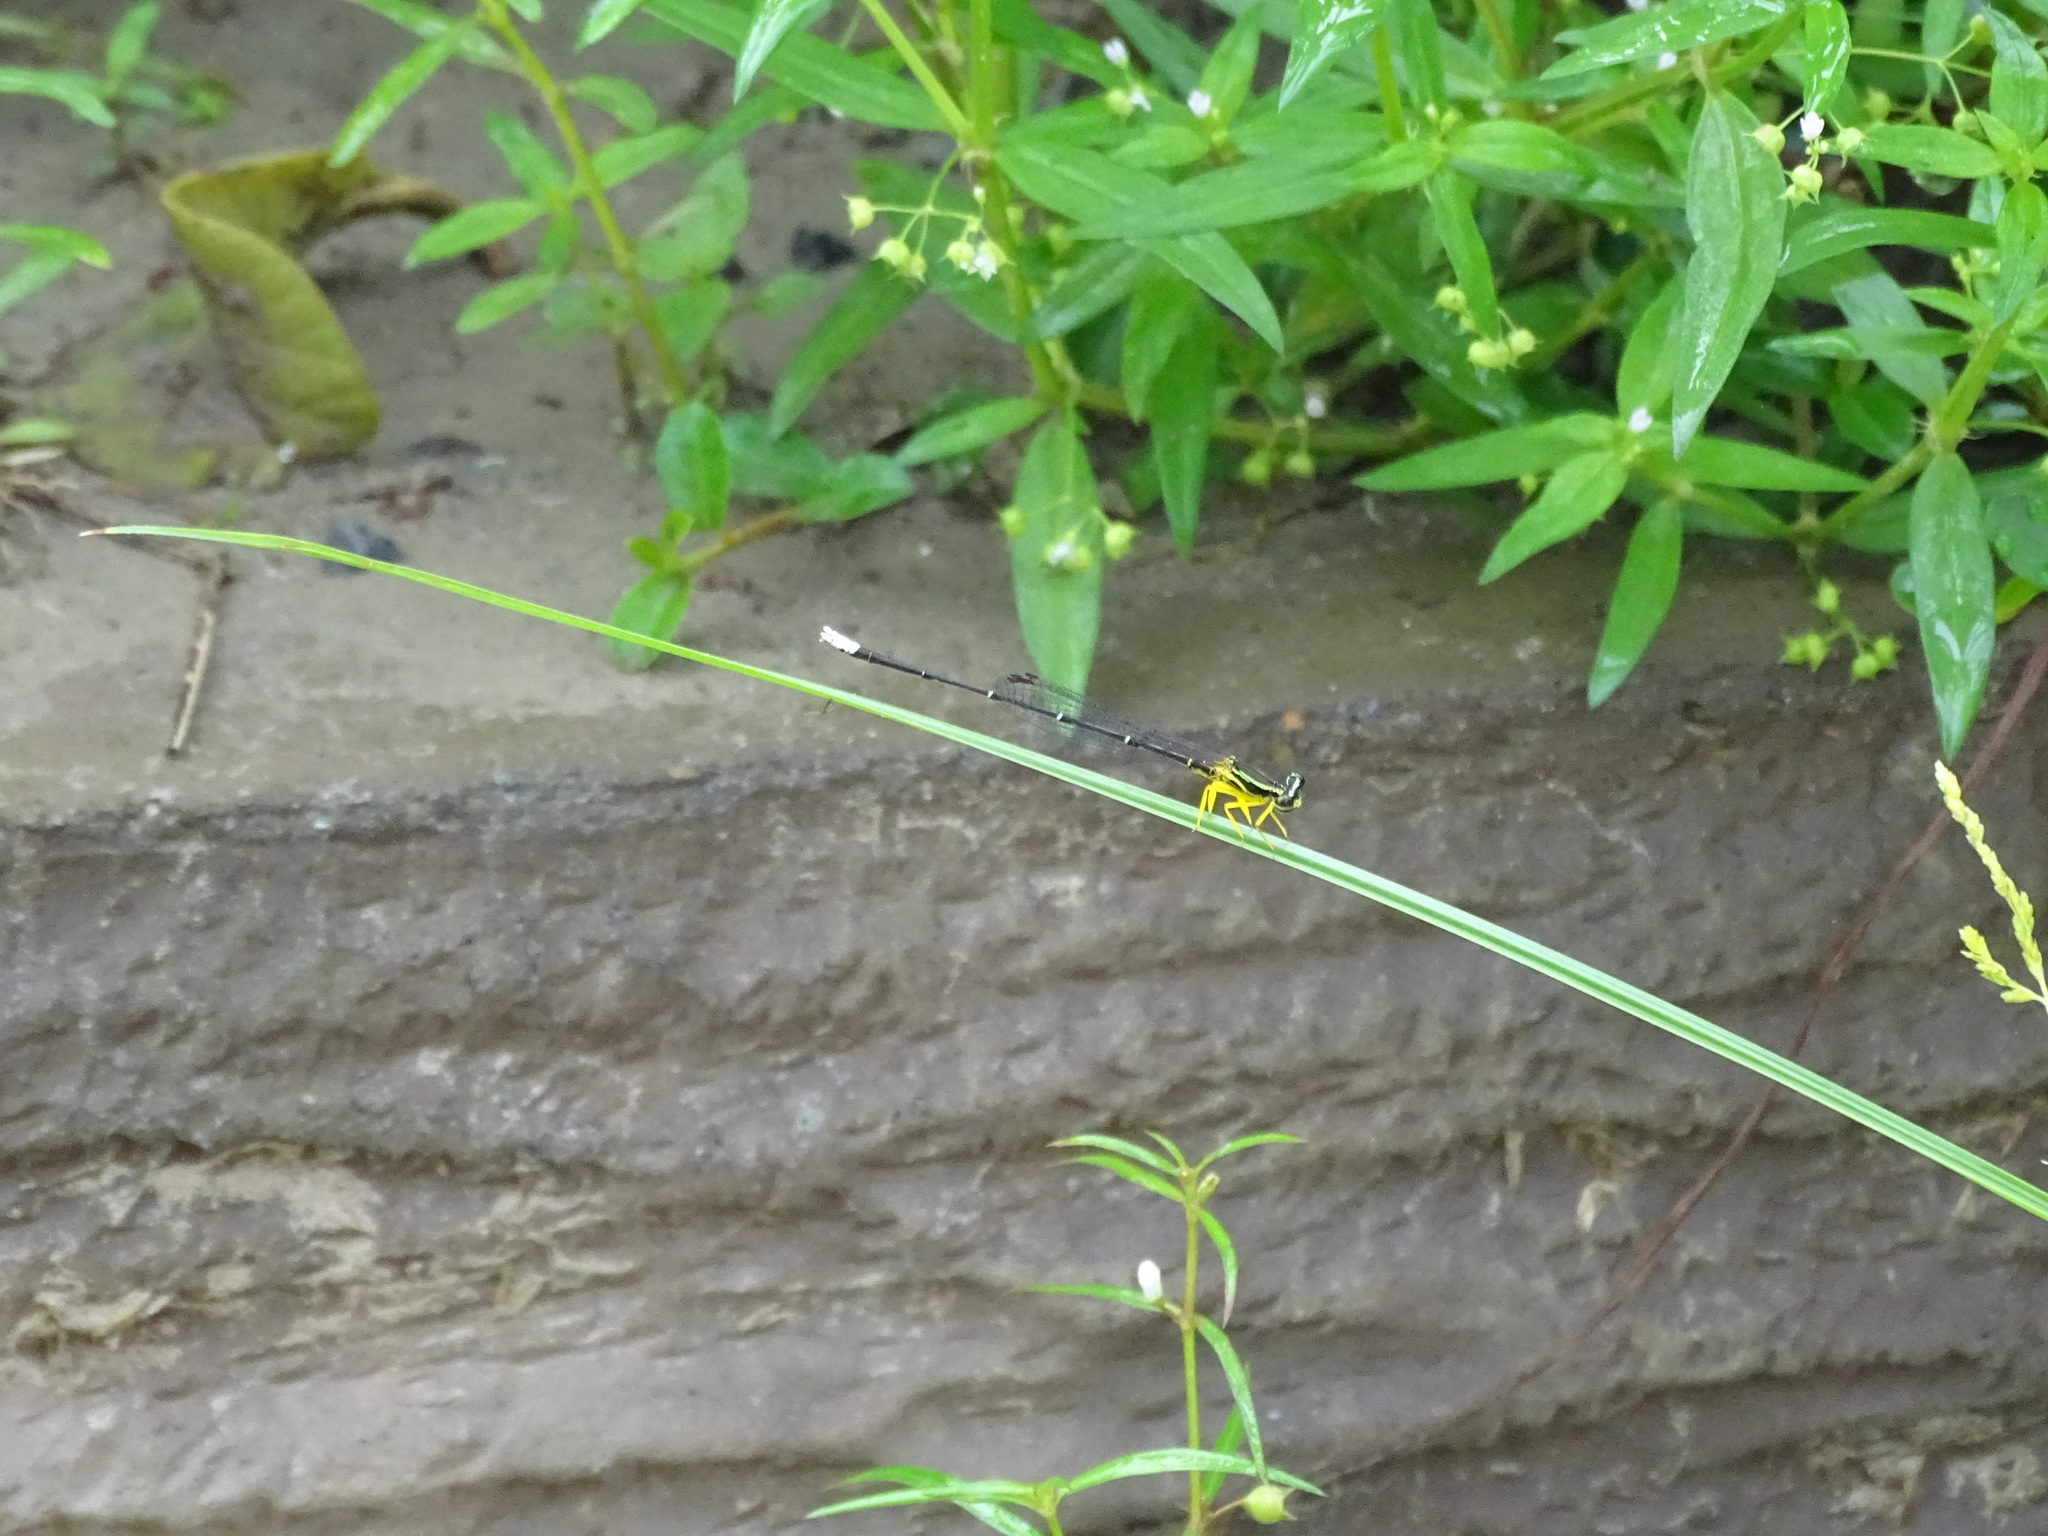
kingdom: Animalia
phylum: Arthropoda
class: Insecta
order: Odonata
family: Platycnemididae
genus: Copera
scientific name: Copera marginipes
